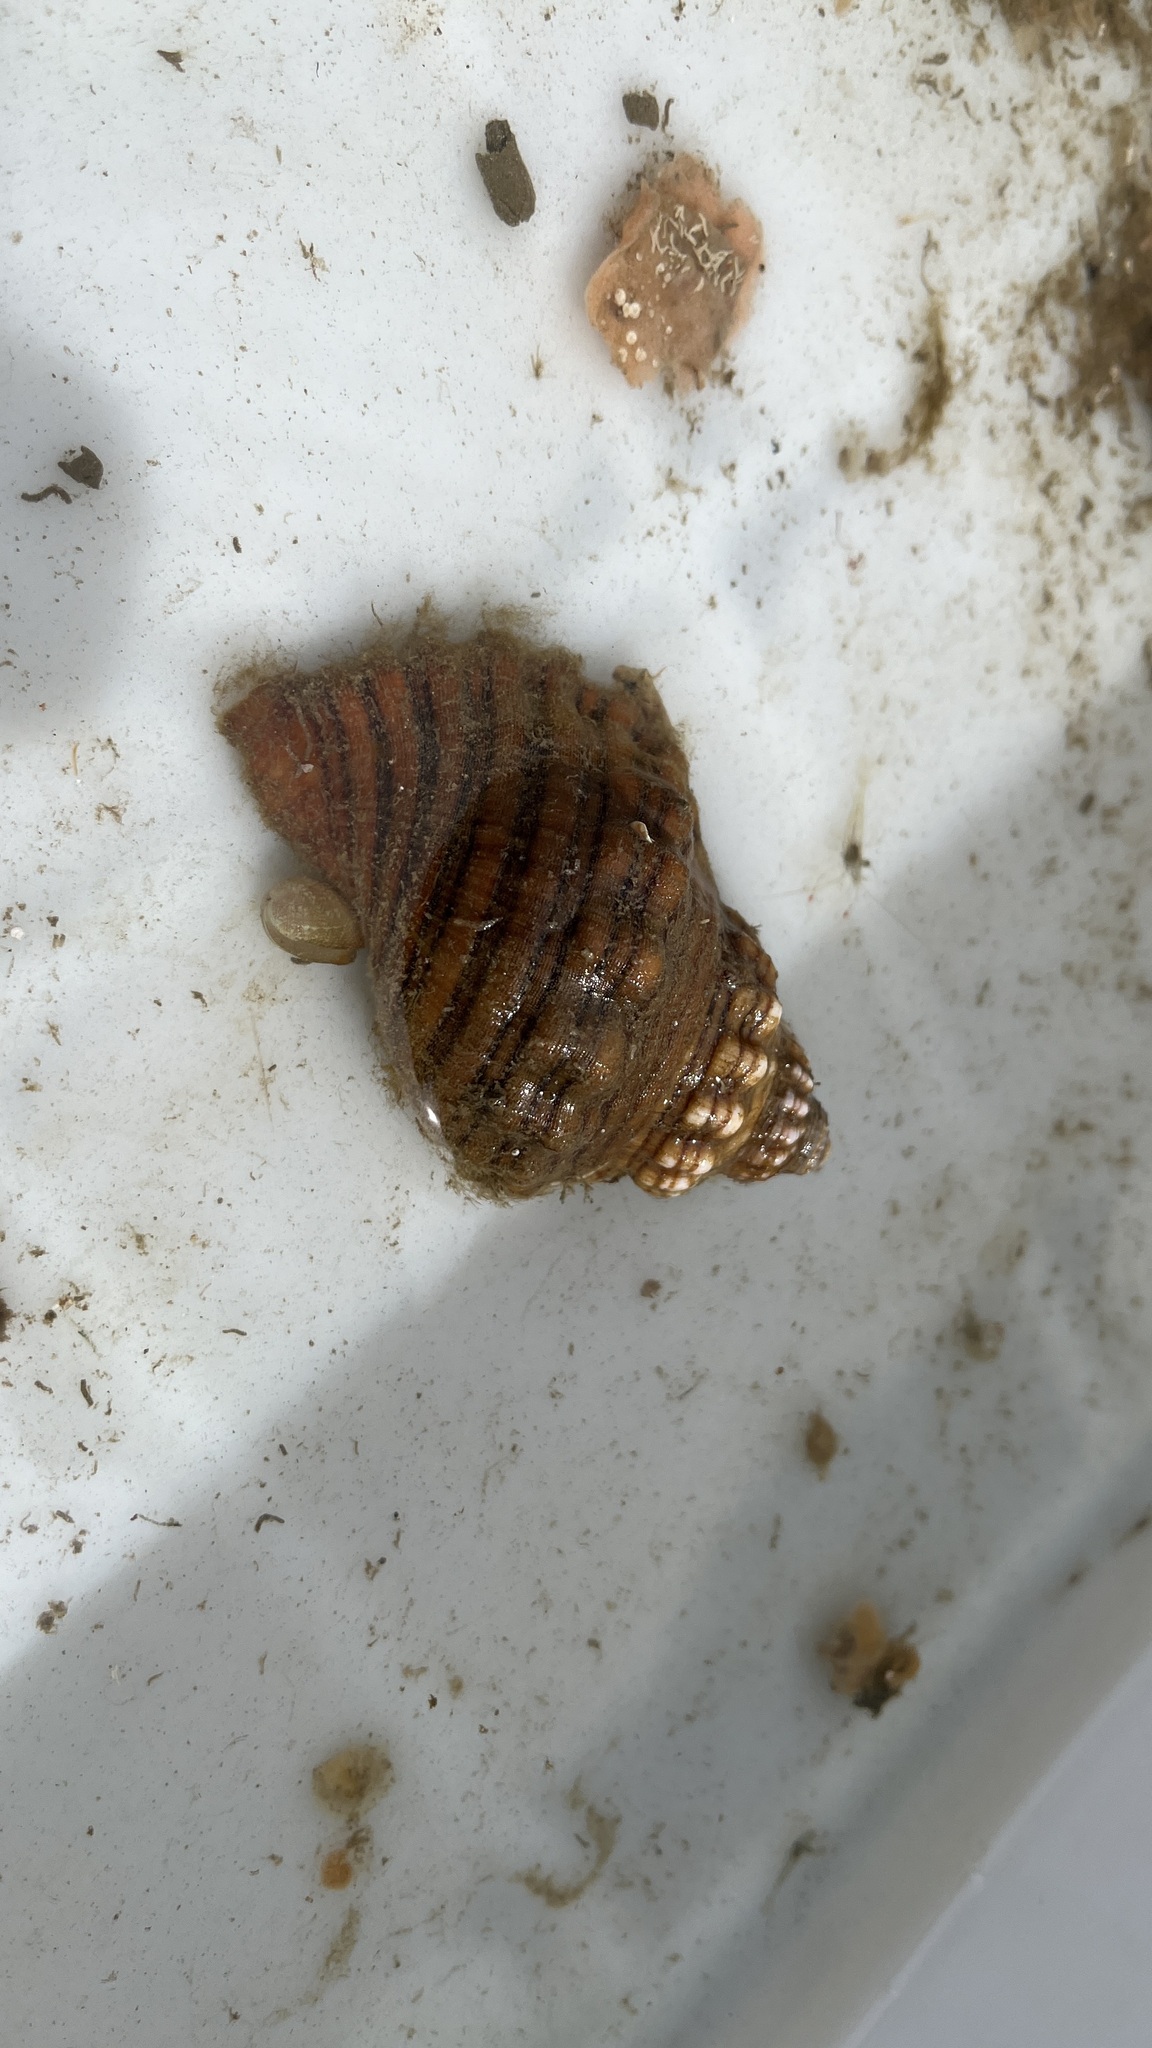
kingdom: Animalia
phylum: Mollusca
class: Gastropoda
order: Littorinimorpha
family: Cymatiidae
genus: Cabestana
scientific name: Cabestana spengleri
